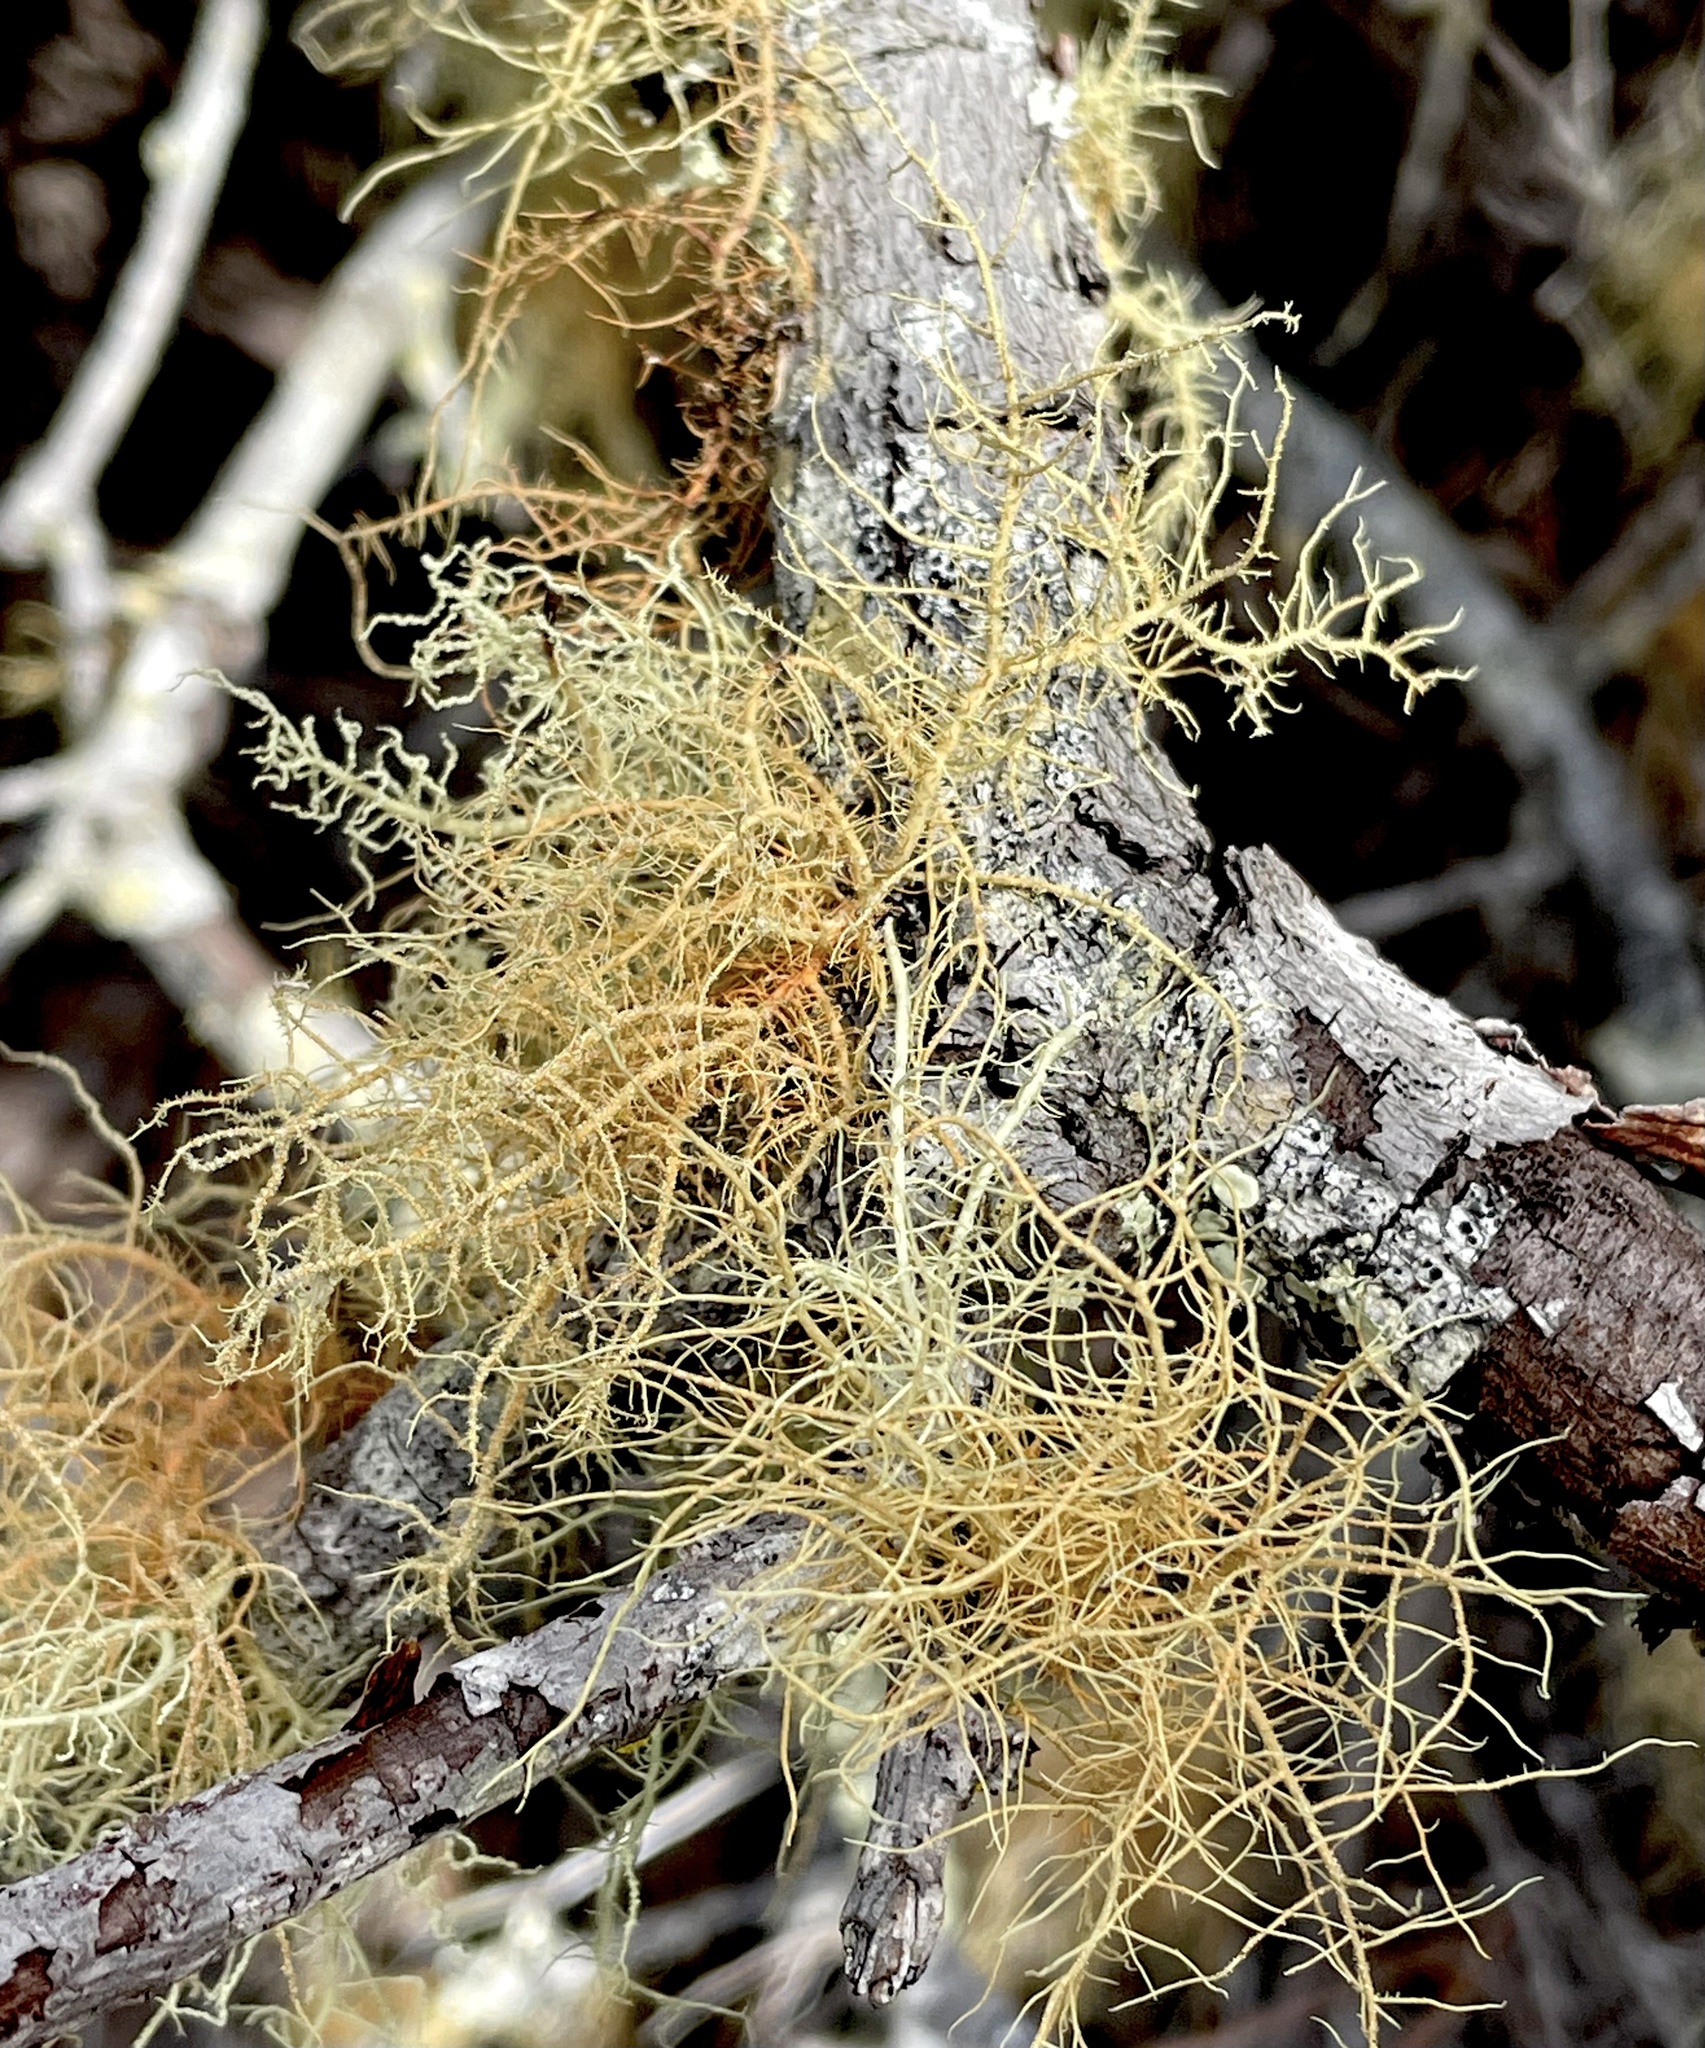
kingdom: Fungi
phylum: Ascomycota
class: Lecanoromycetes
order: Lecanorales
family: Parmeliaceae
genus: Usnea
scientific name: Usnea rubicunda
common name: Red beard lichen
